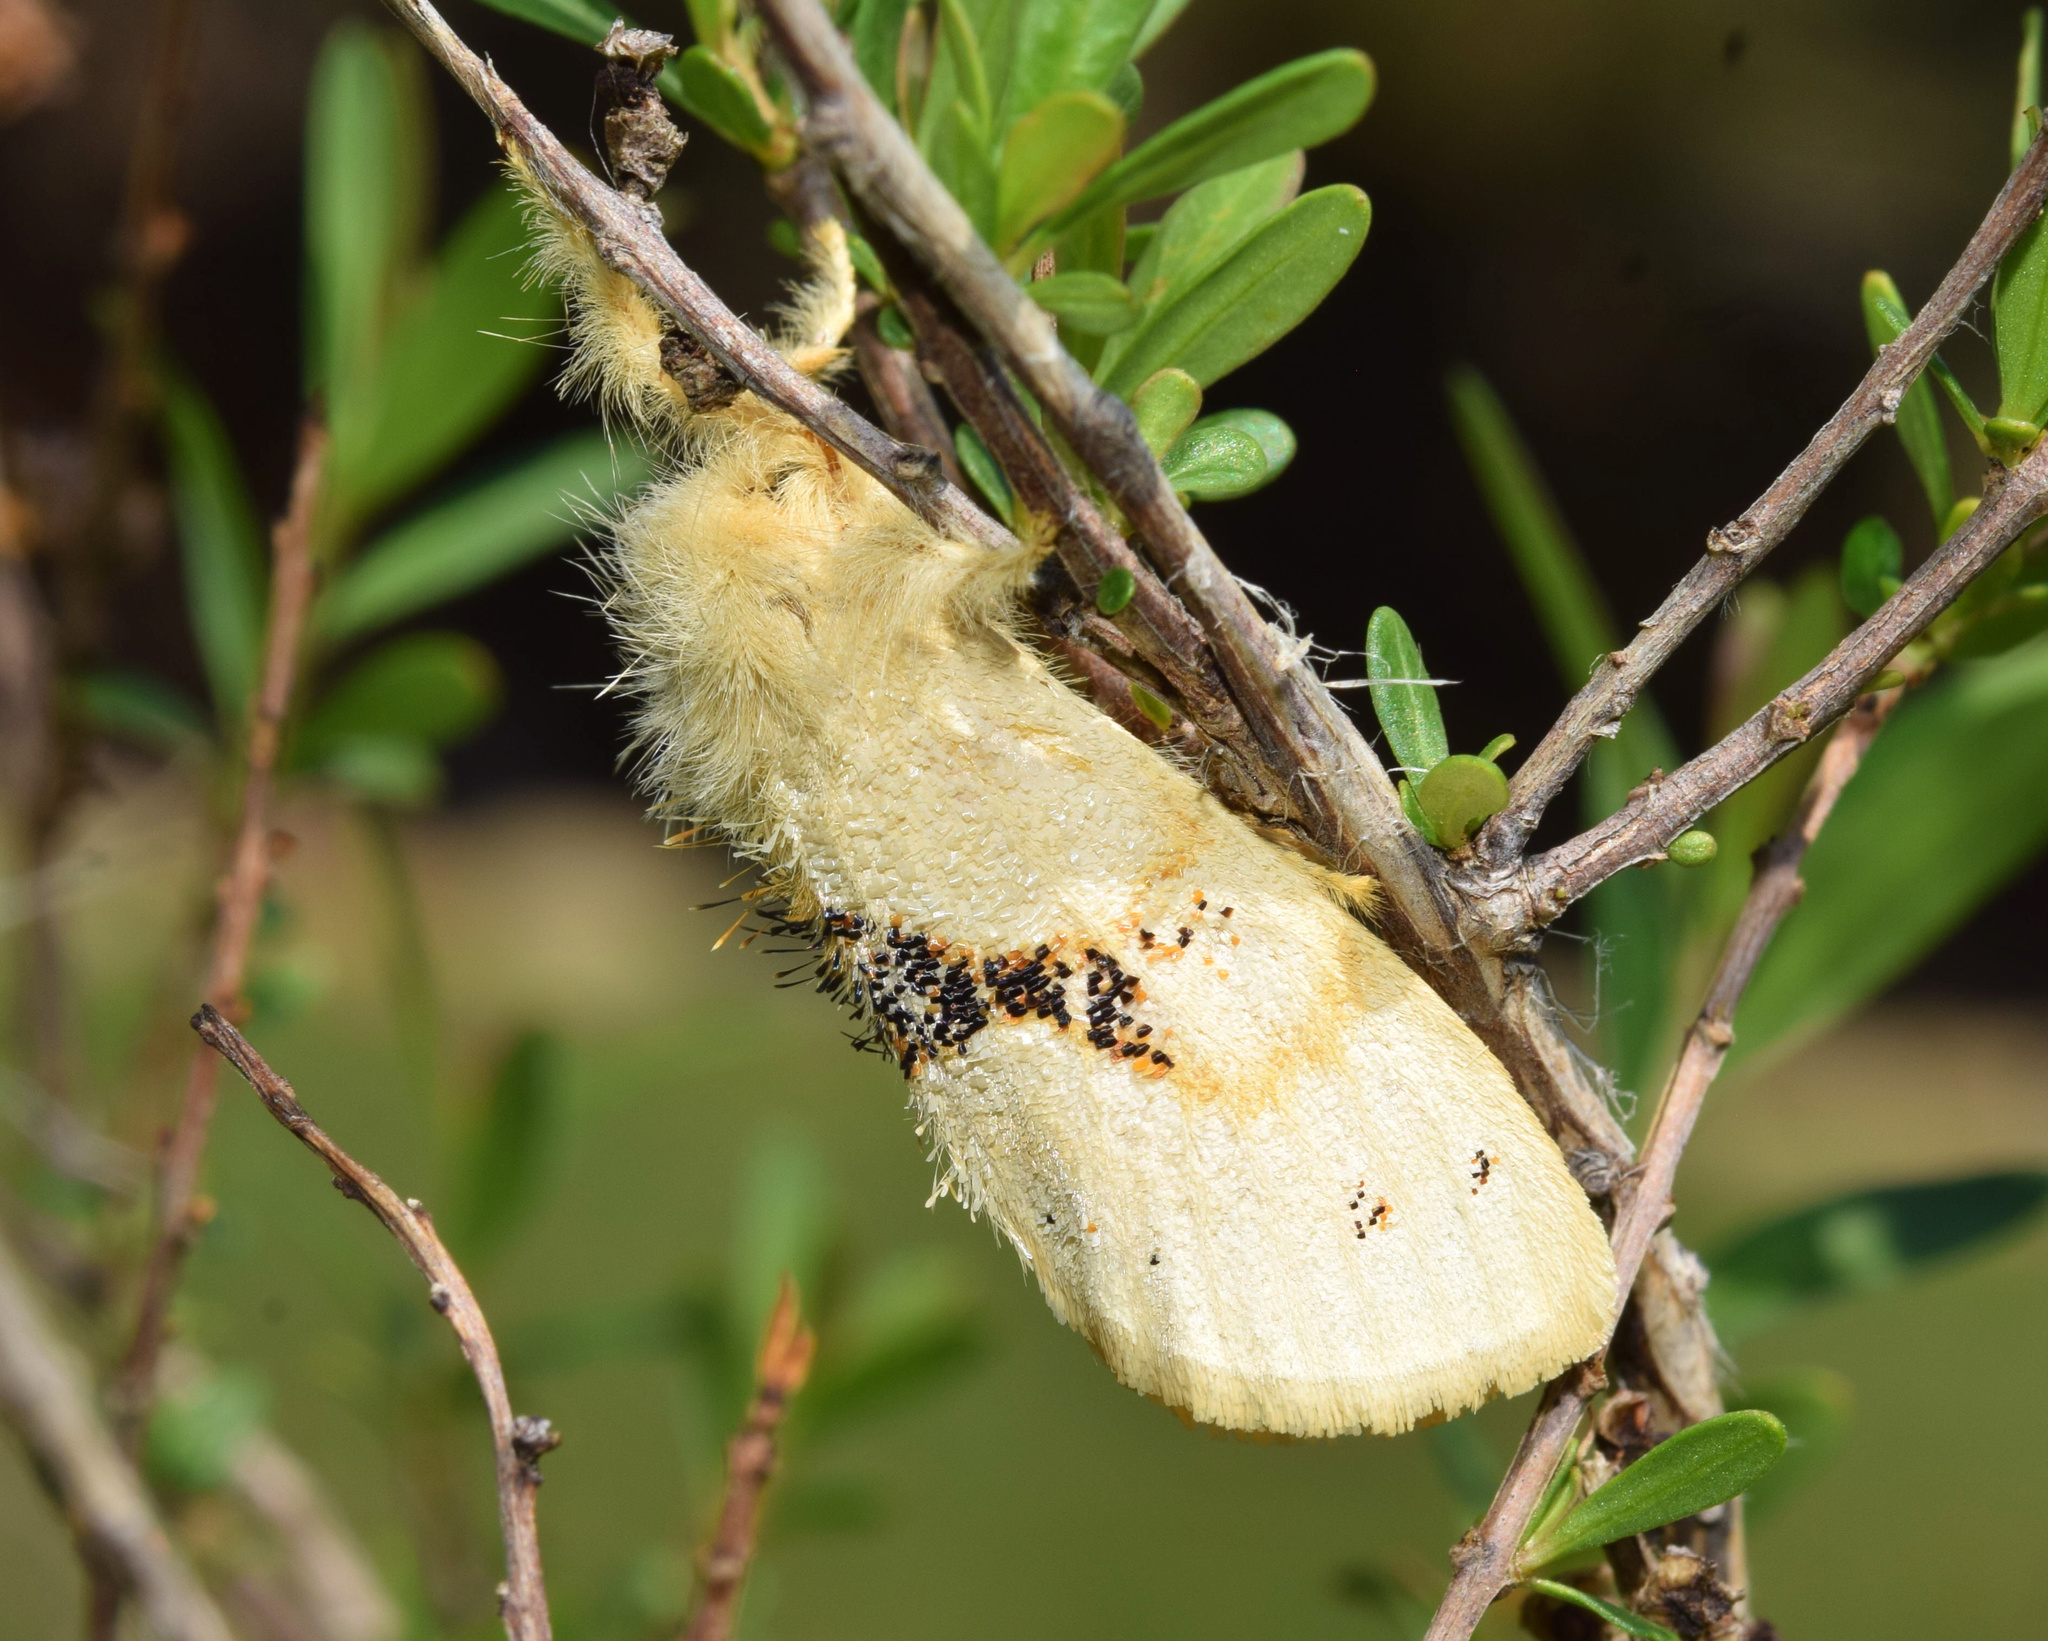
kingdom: Animalia
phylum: Arthropoda
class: Insecta
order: Lepidoptera
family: Erebidae
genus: Euproctis
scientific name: Euproctis Knappetra fasciata
